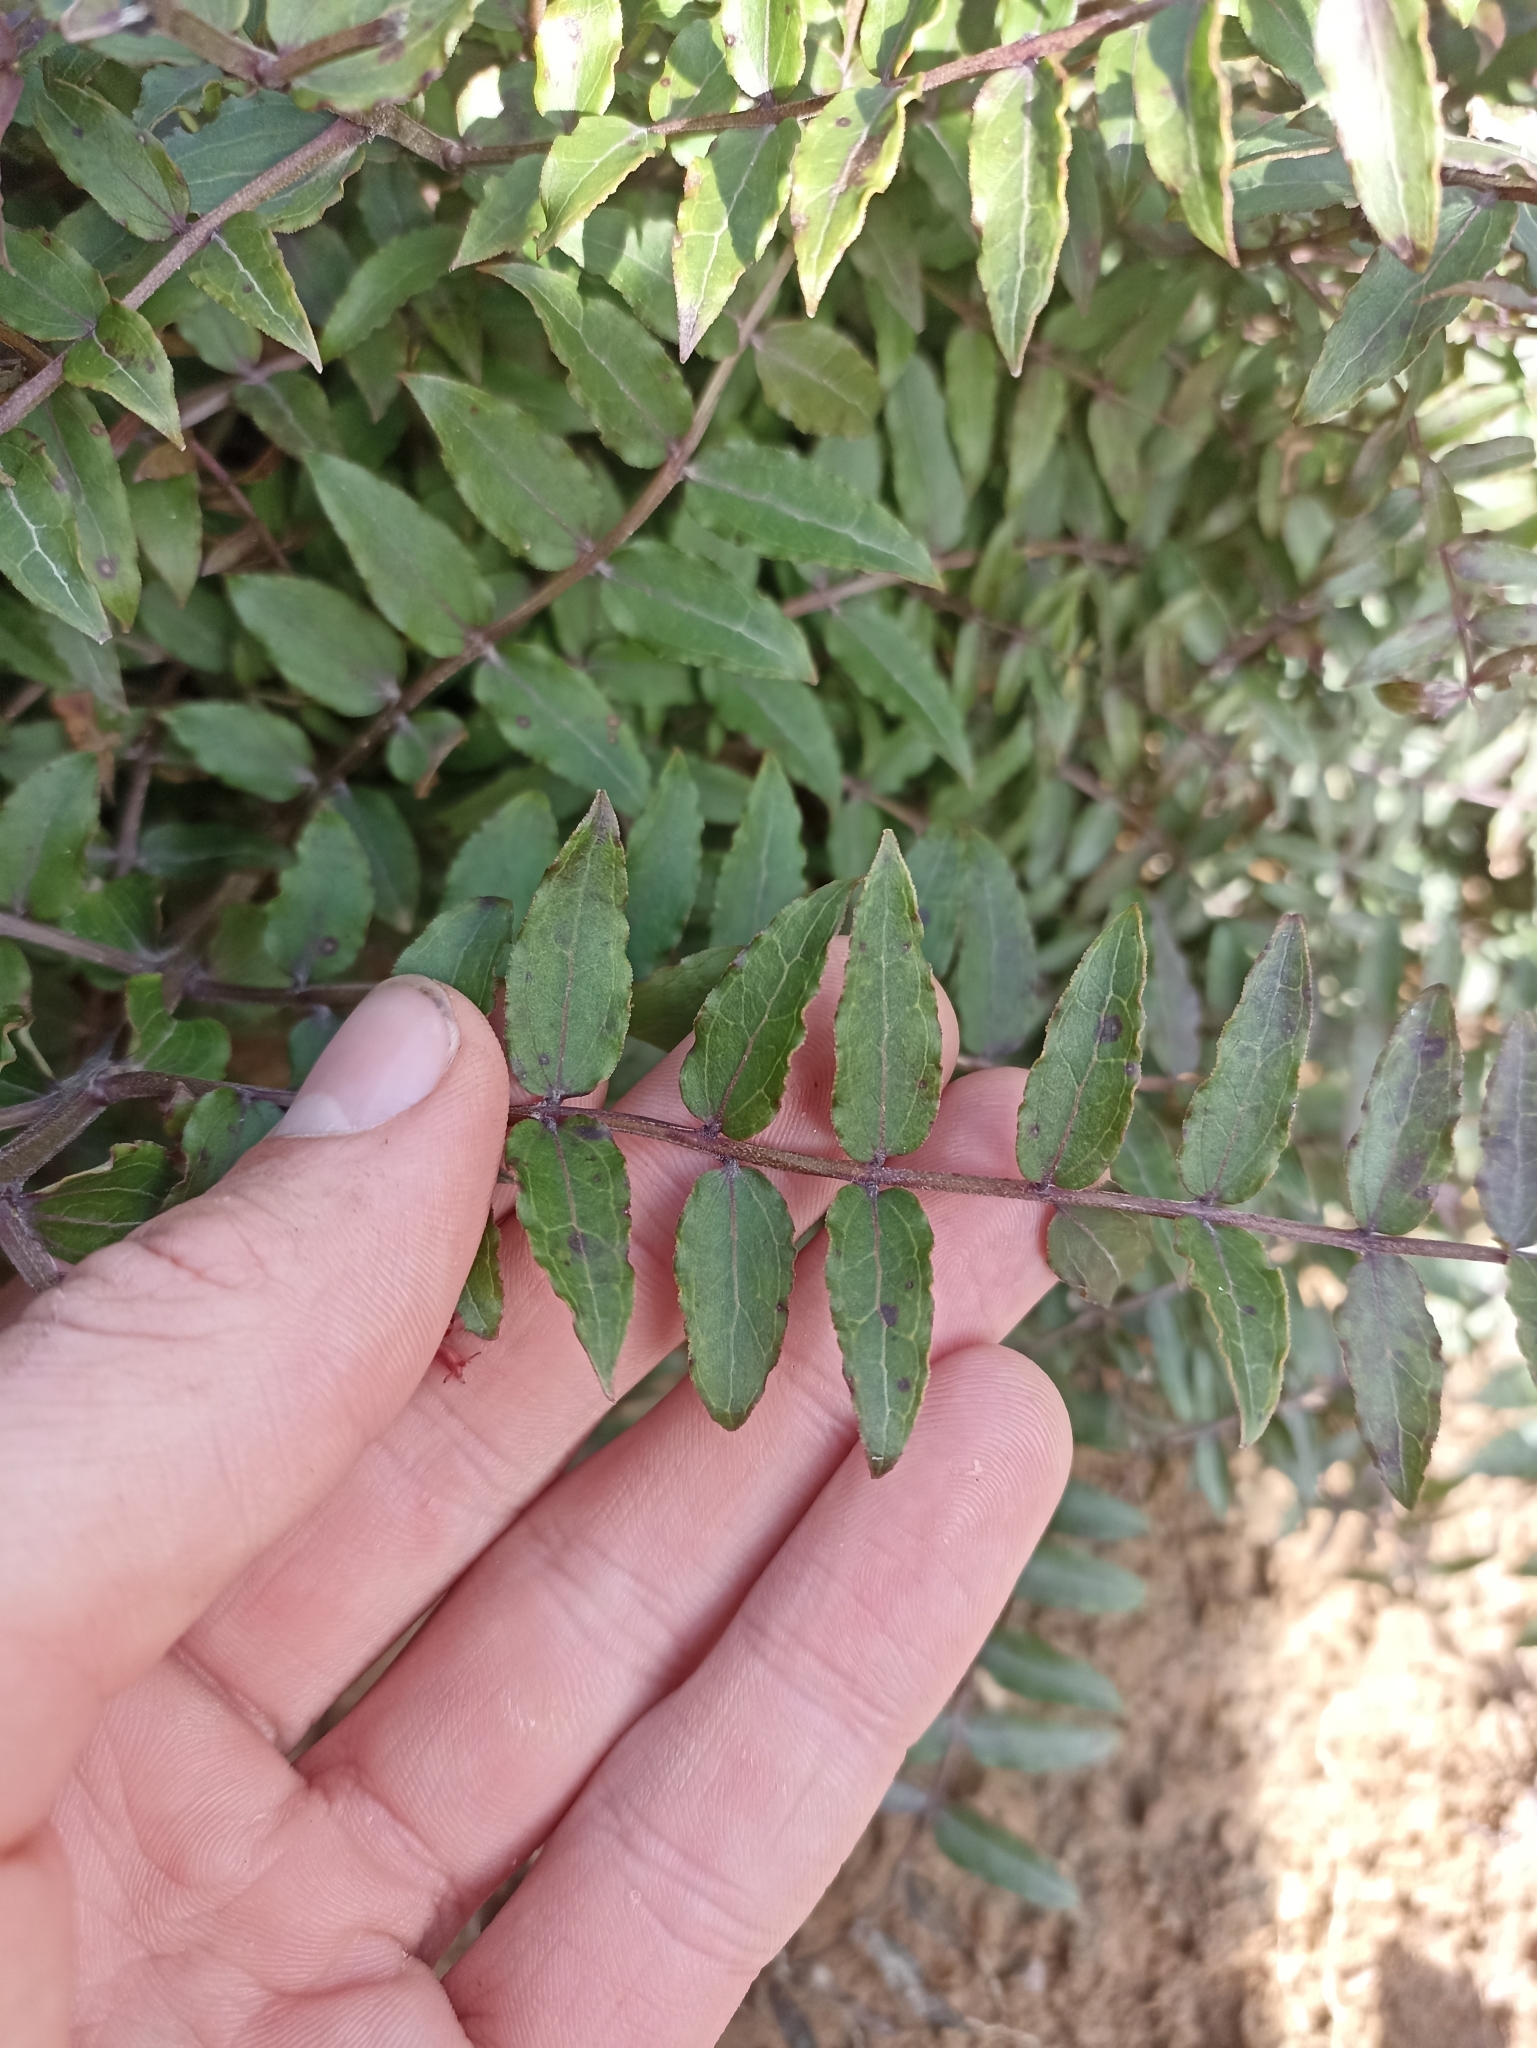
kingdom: Plantae
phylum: Tracheophyta
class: Magnoliopsida
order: Cucurbitales
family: Coriariaceae
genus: Coriaria
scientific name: Coriaria kingiana
